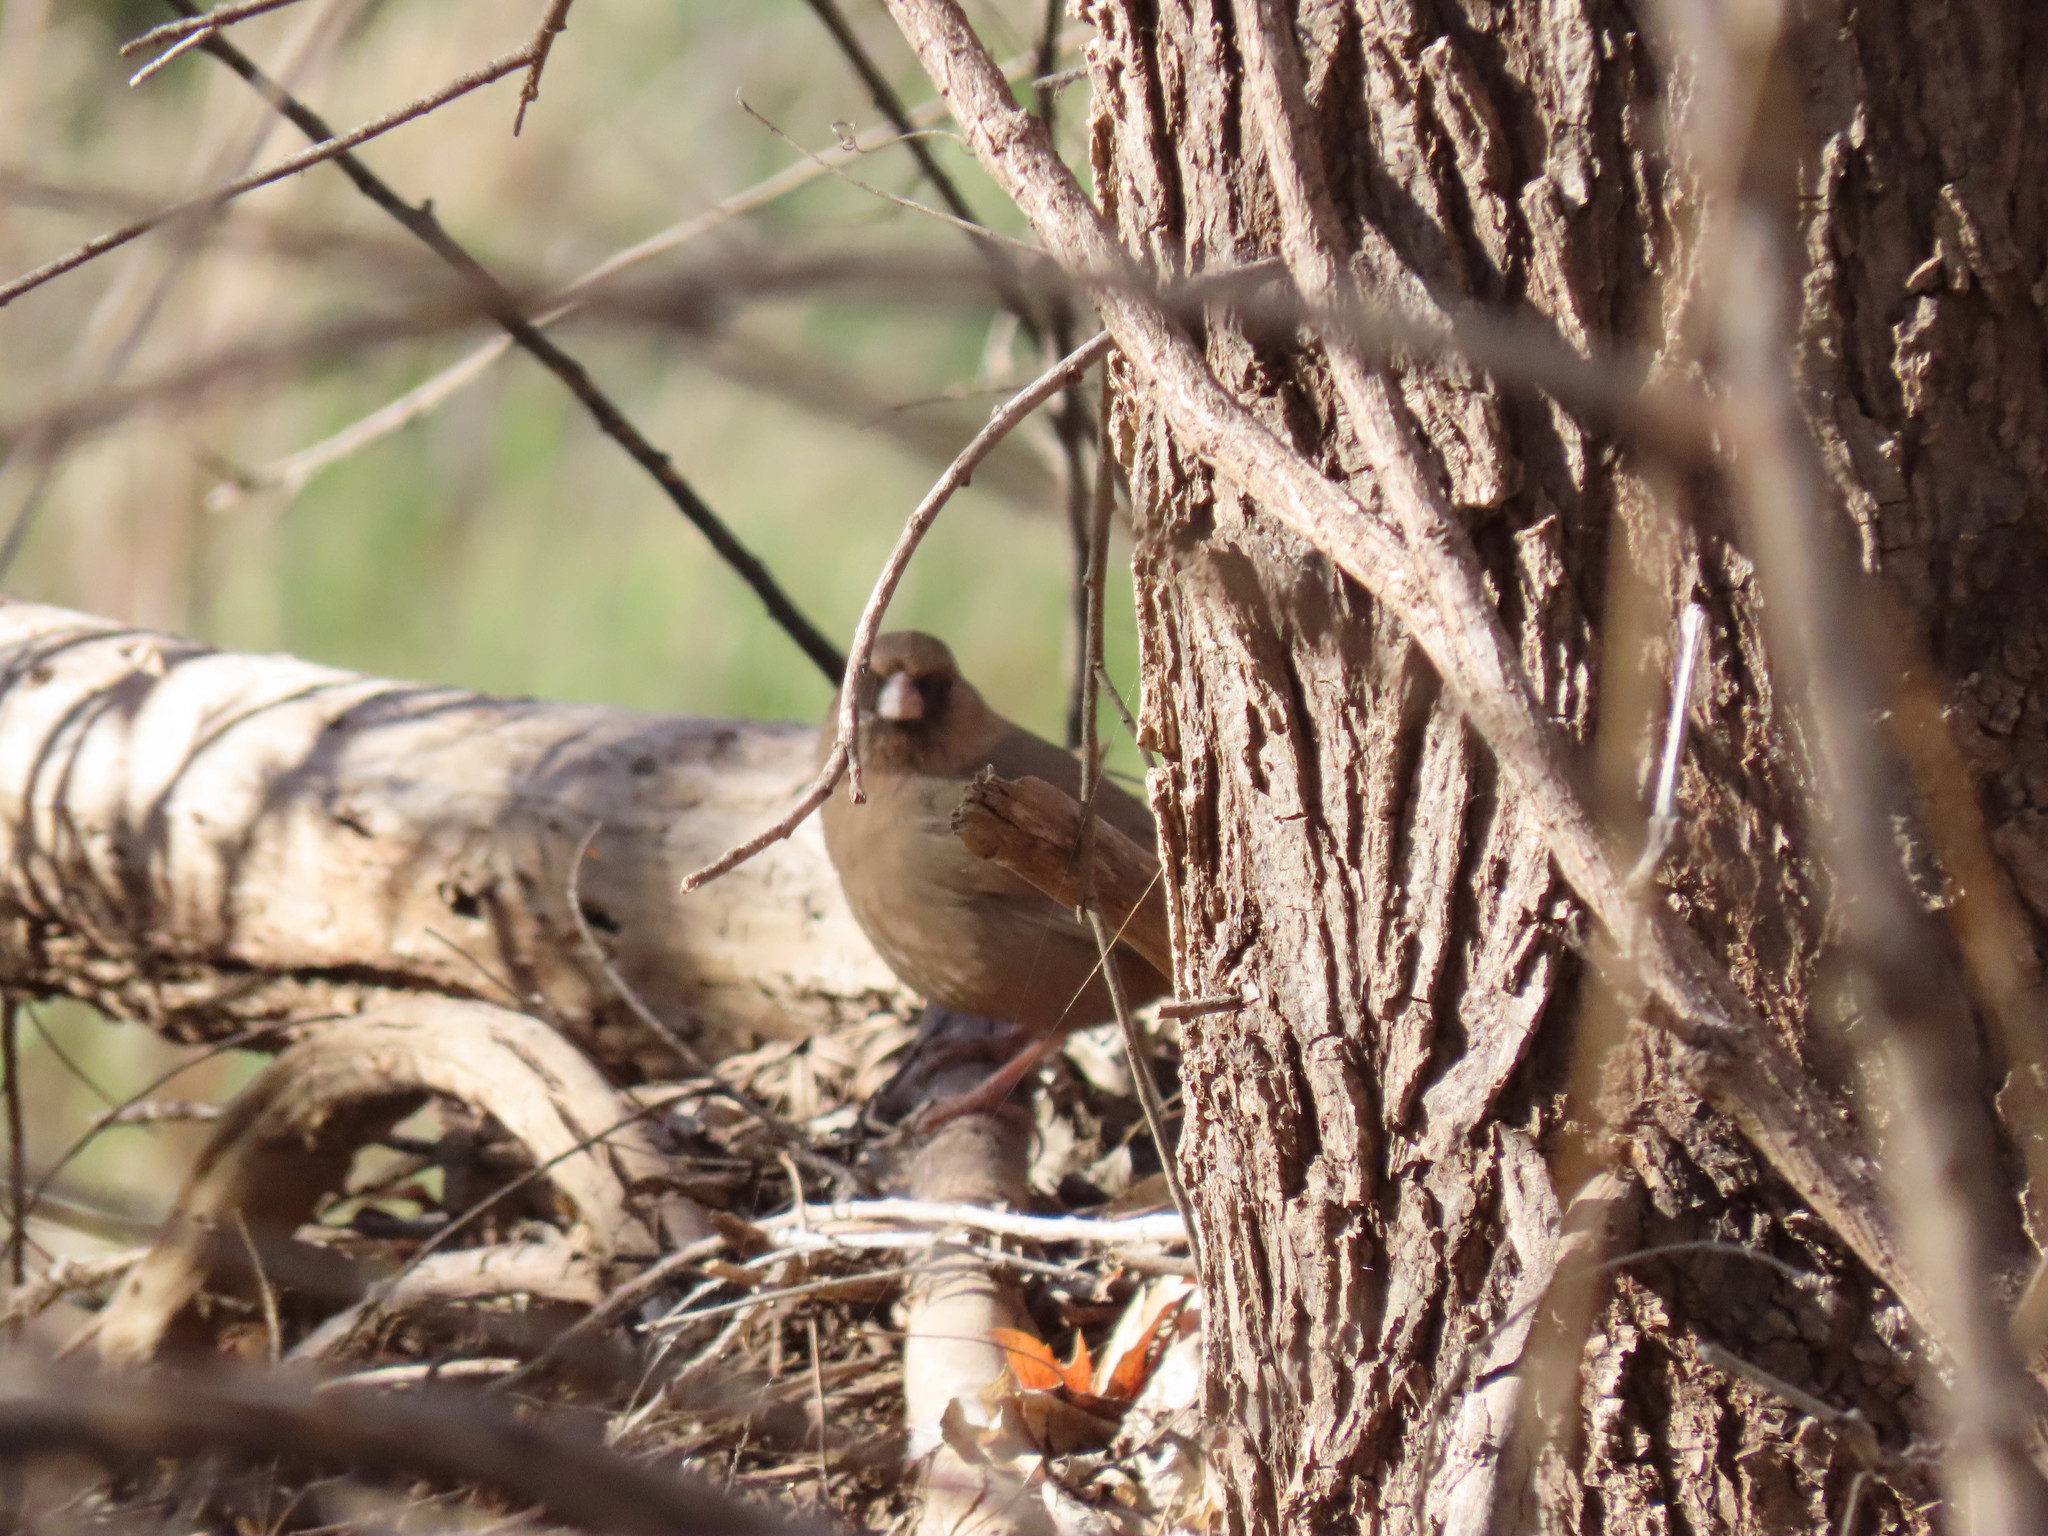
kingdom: Animalia
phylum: Chordata
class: Aves
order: Passeriformes
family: Passerellidae
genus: Melozone
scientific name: Melozone aberti
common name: Abert's towhee
